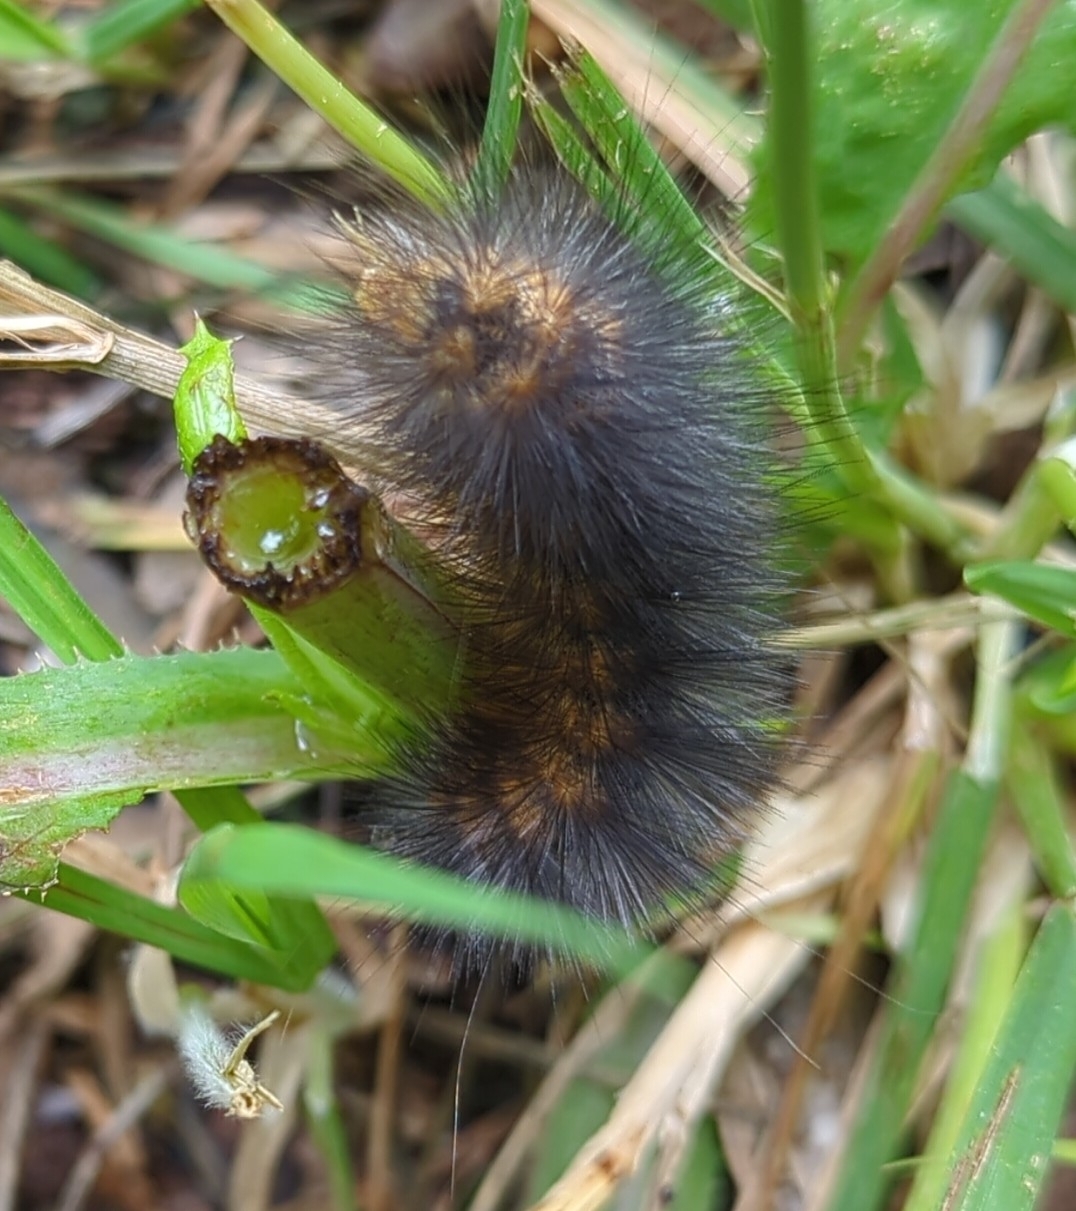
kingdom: Animalia
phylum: Arthropoda
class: Insecta
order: Lepidoptera
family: Erebidae
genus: Estigmene
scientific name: Estigmene acrea
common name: Salt marsh moth
